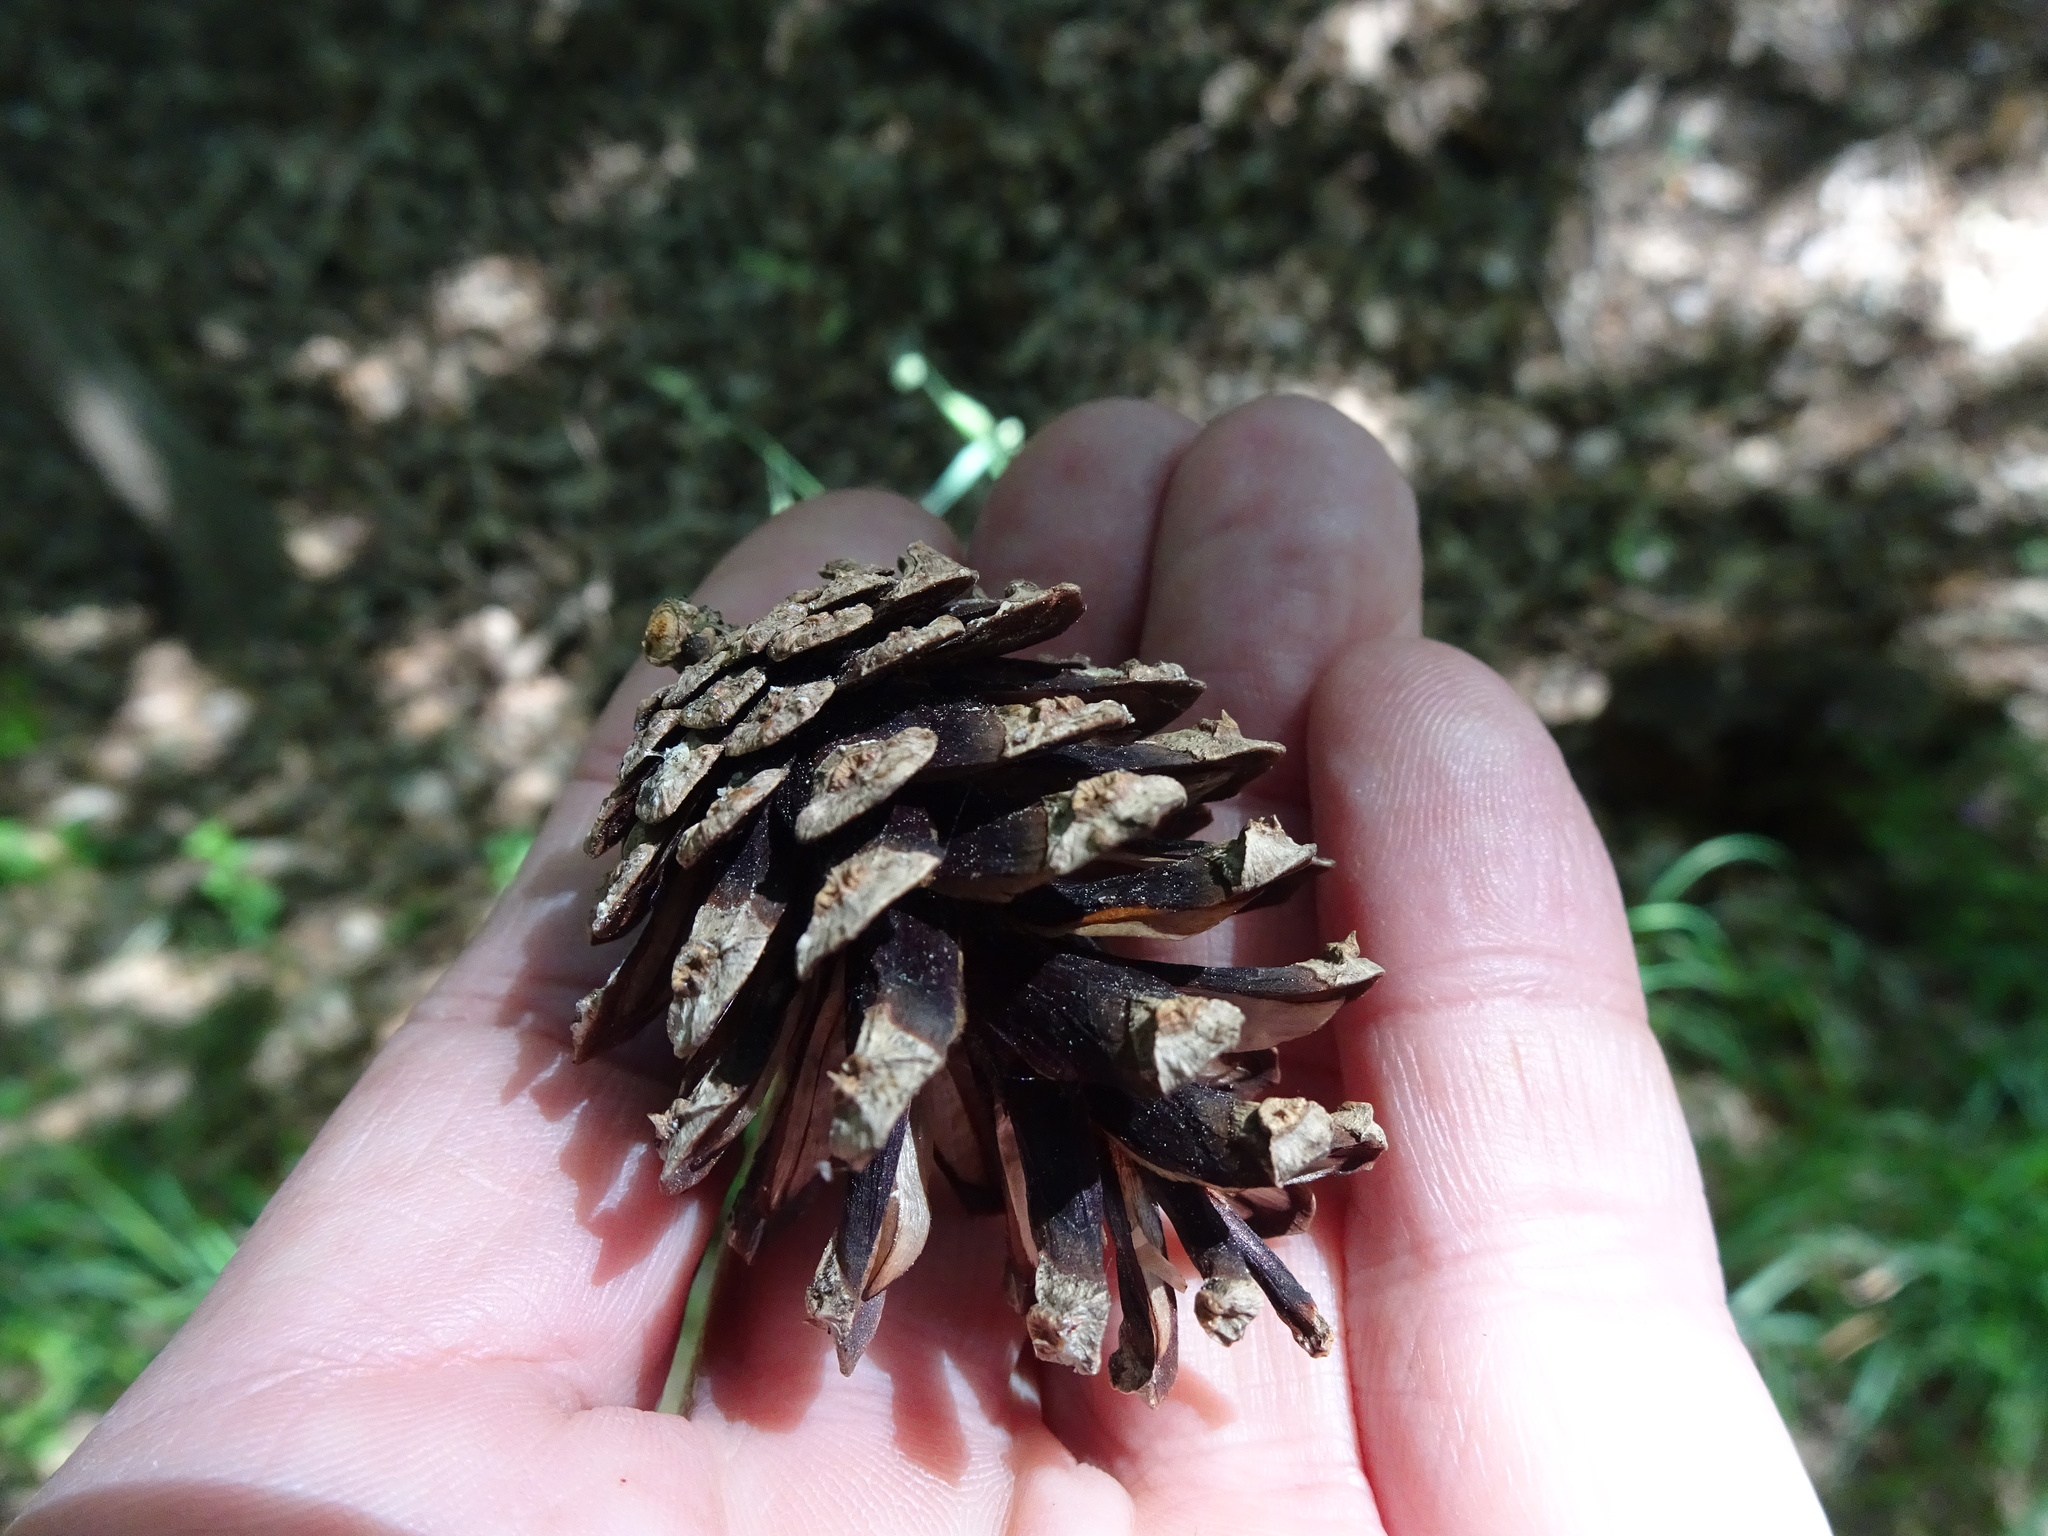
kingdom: Plantae
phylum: Tracheophyta
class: Pinopsida
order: Pinales
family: Pinaceae
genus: Pinus
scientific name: Pinus sylvestris
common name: Scots pine
